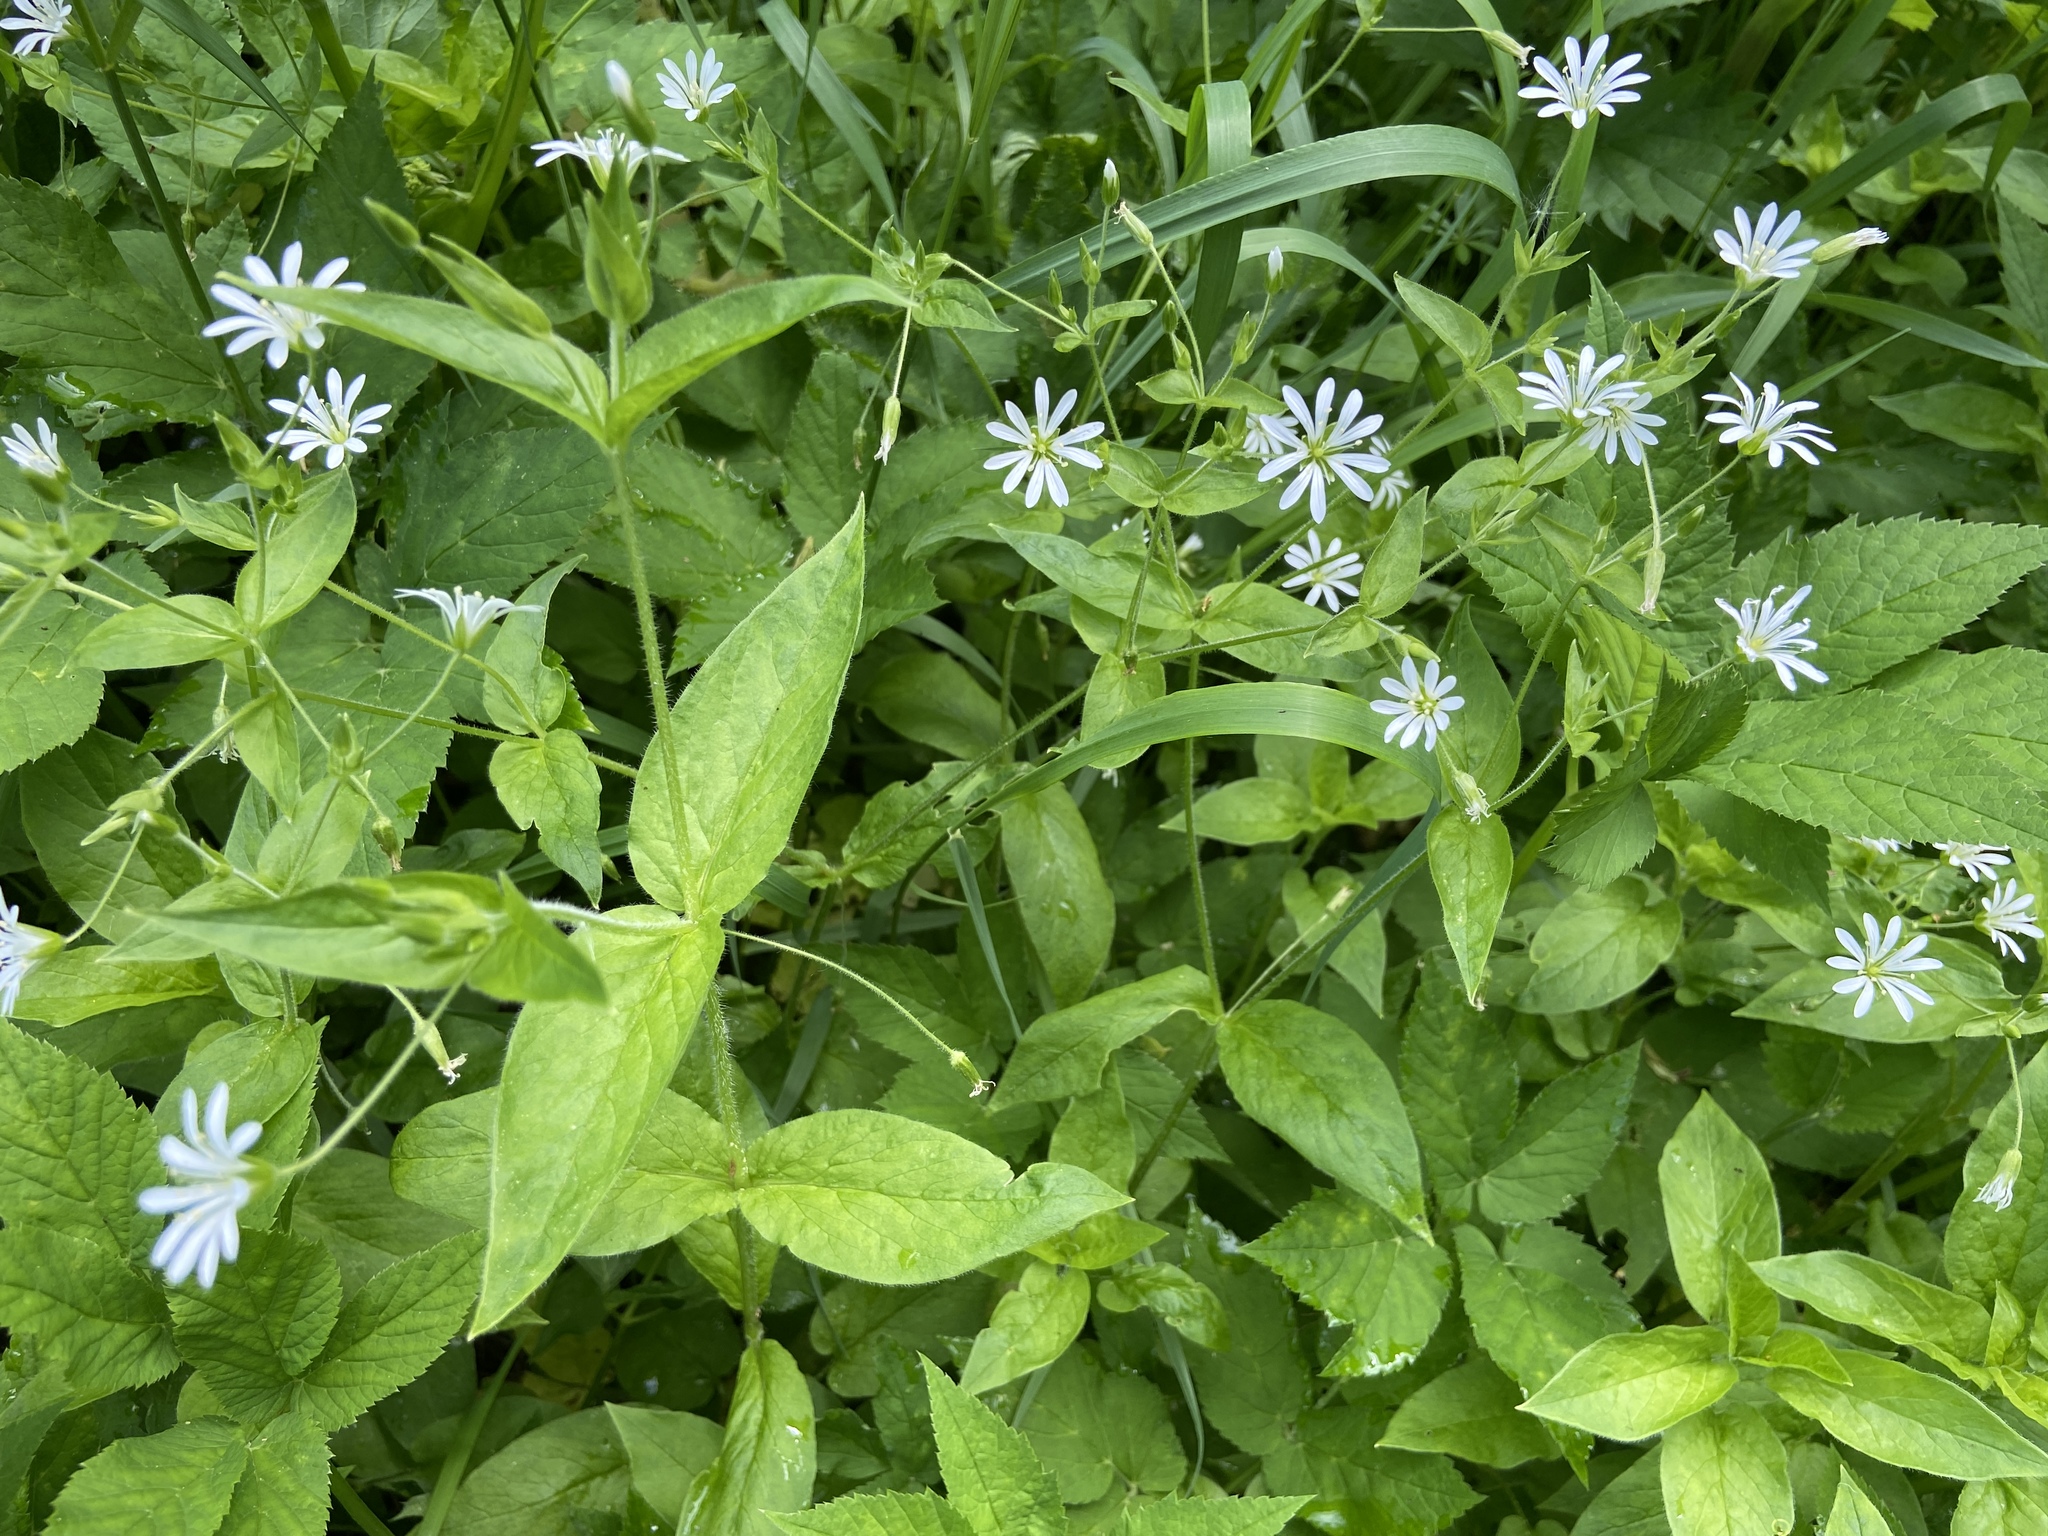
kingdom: Plantae
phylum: Tracheophyta
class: Magnoliopsida
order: Caryophyllales
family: Caryophyllaceae
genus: Stellaria
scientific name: Stellaria nemorum
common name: Wood stitchwort
